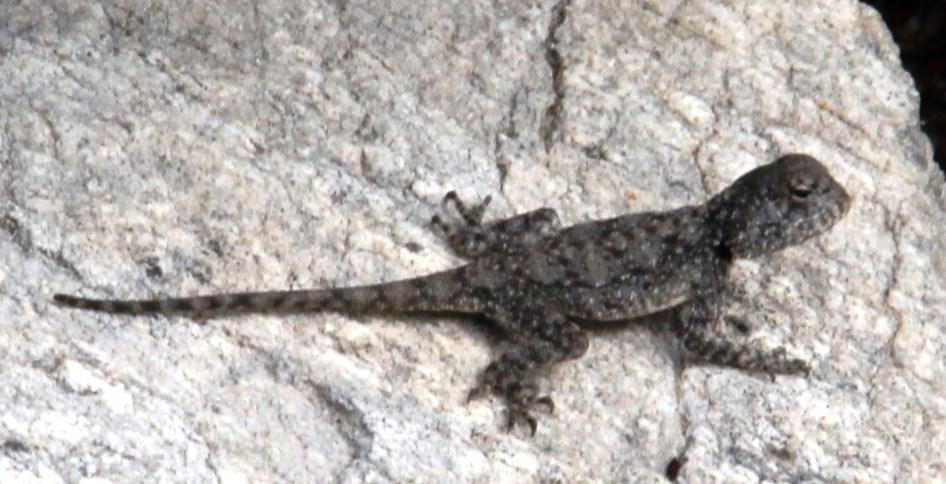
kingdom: Animalia
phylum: Chordata
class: Squamata
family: Agamidae
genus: Agama
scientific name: Agama atra
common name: Southern african rock agama
